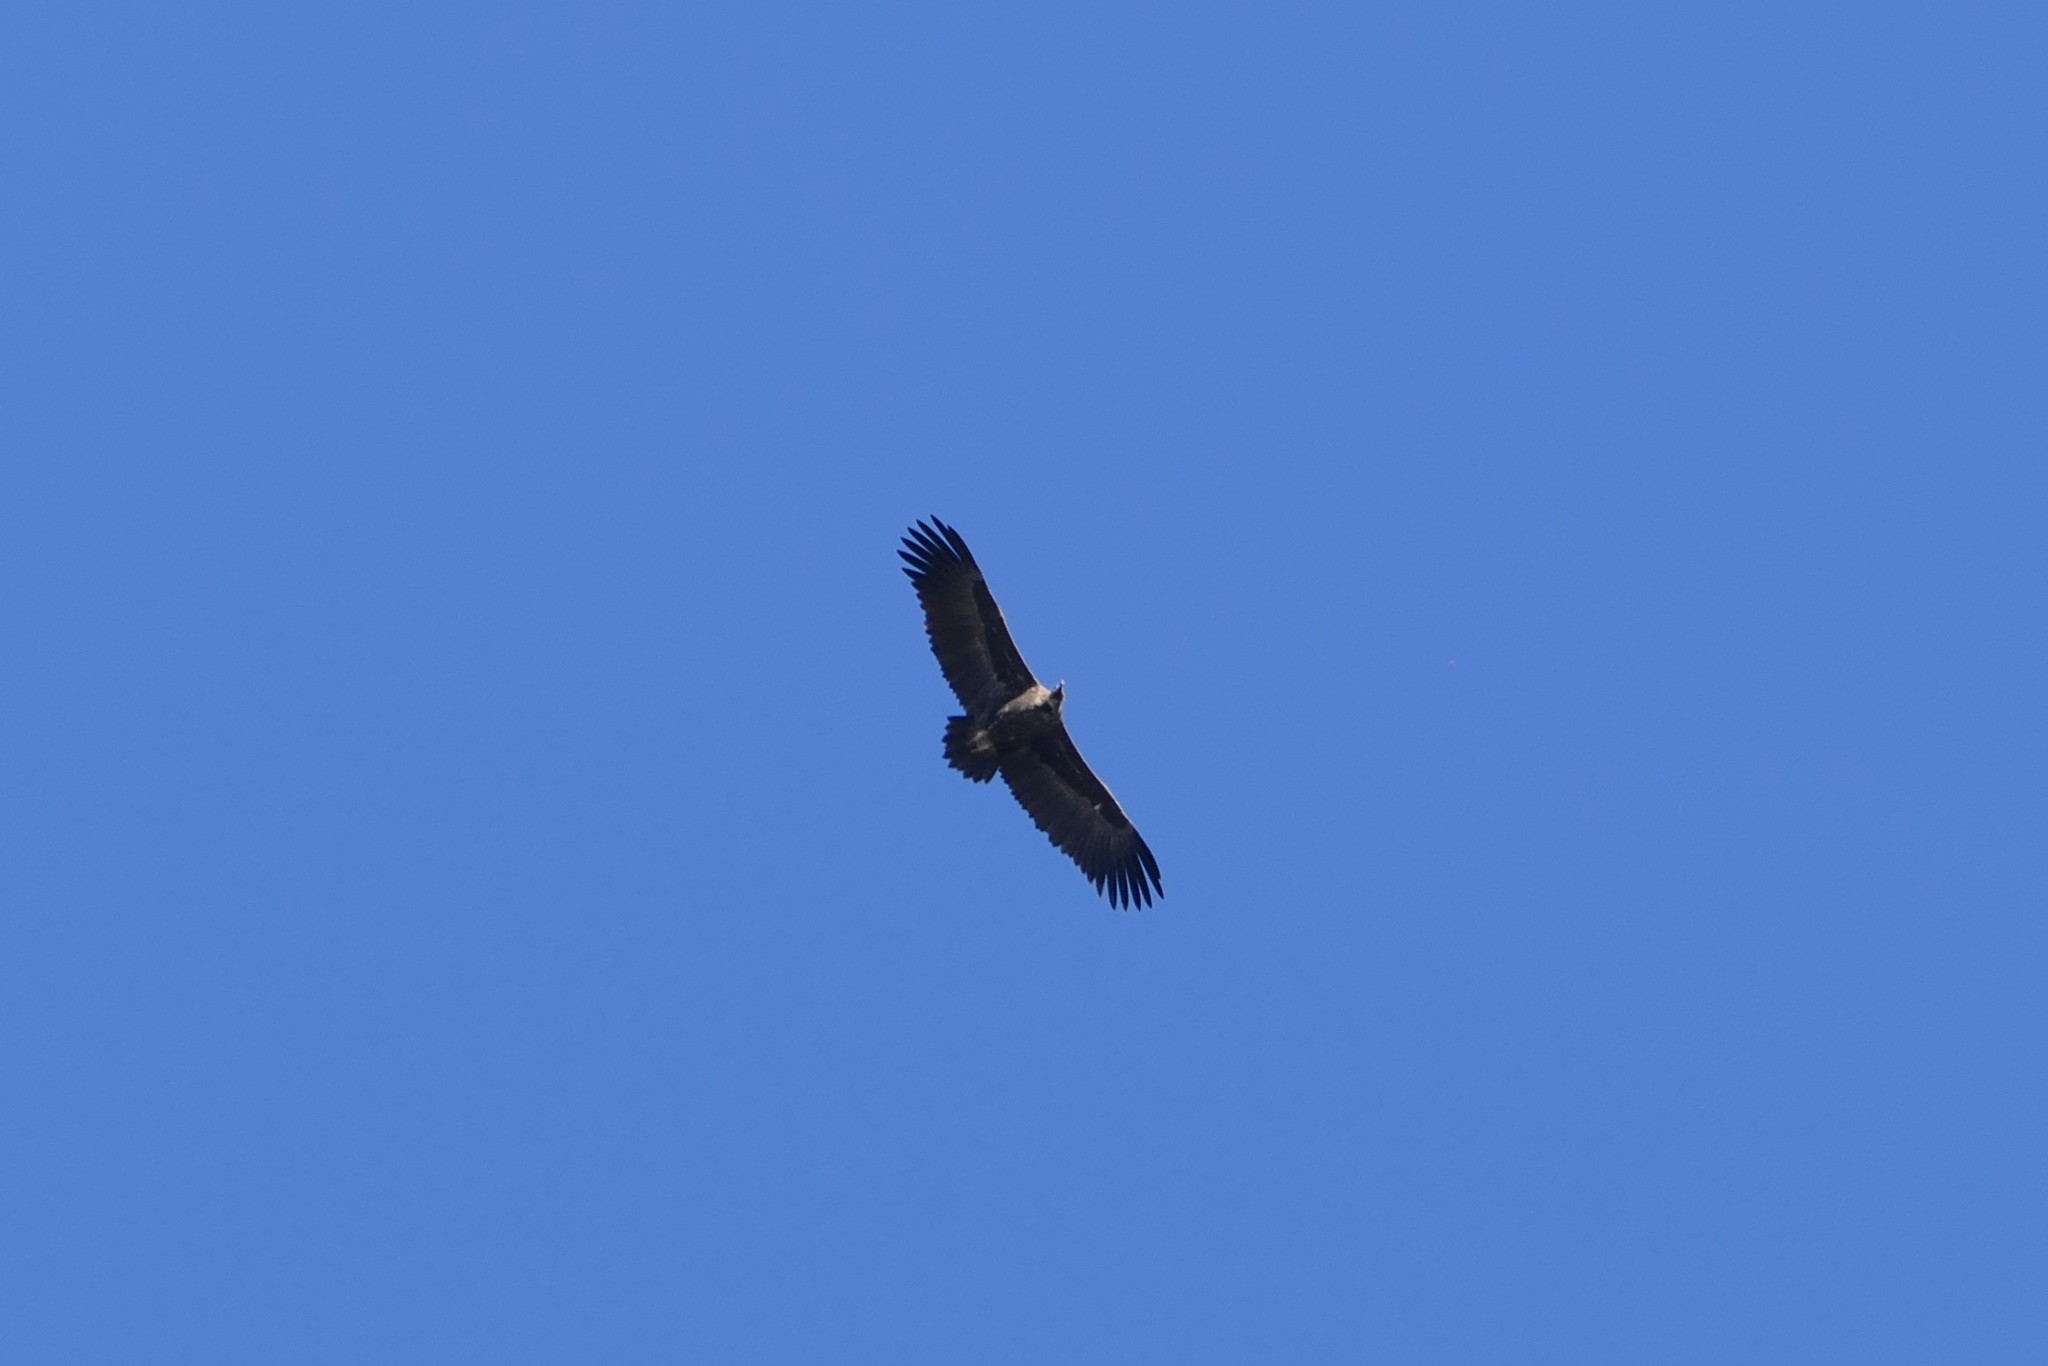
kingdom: Animalia
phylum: Chordata
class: Aves
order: Accipitriformes
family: Accipitridae
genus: Aegypius
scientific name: Aegypius monachus
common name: Cinereous vulture
